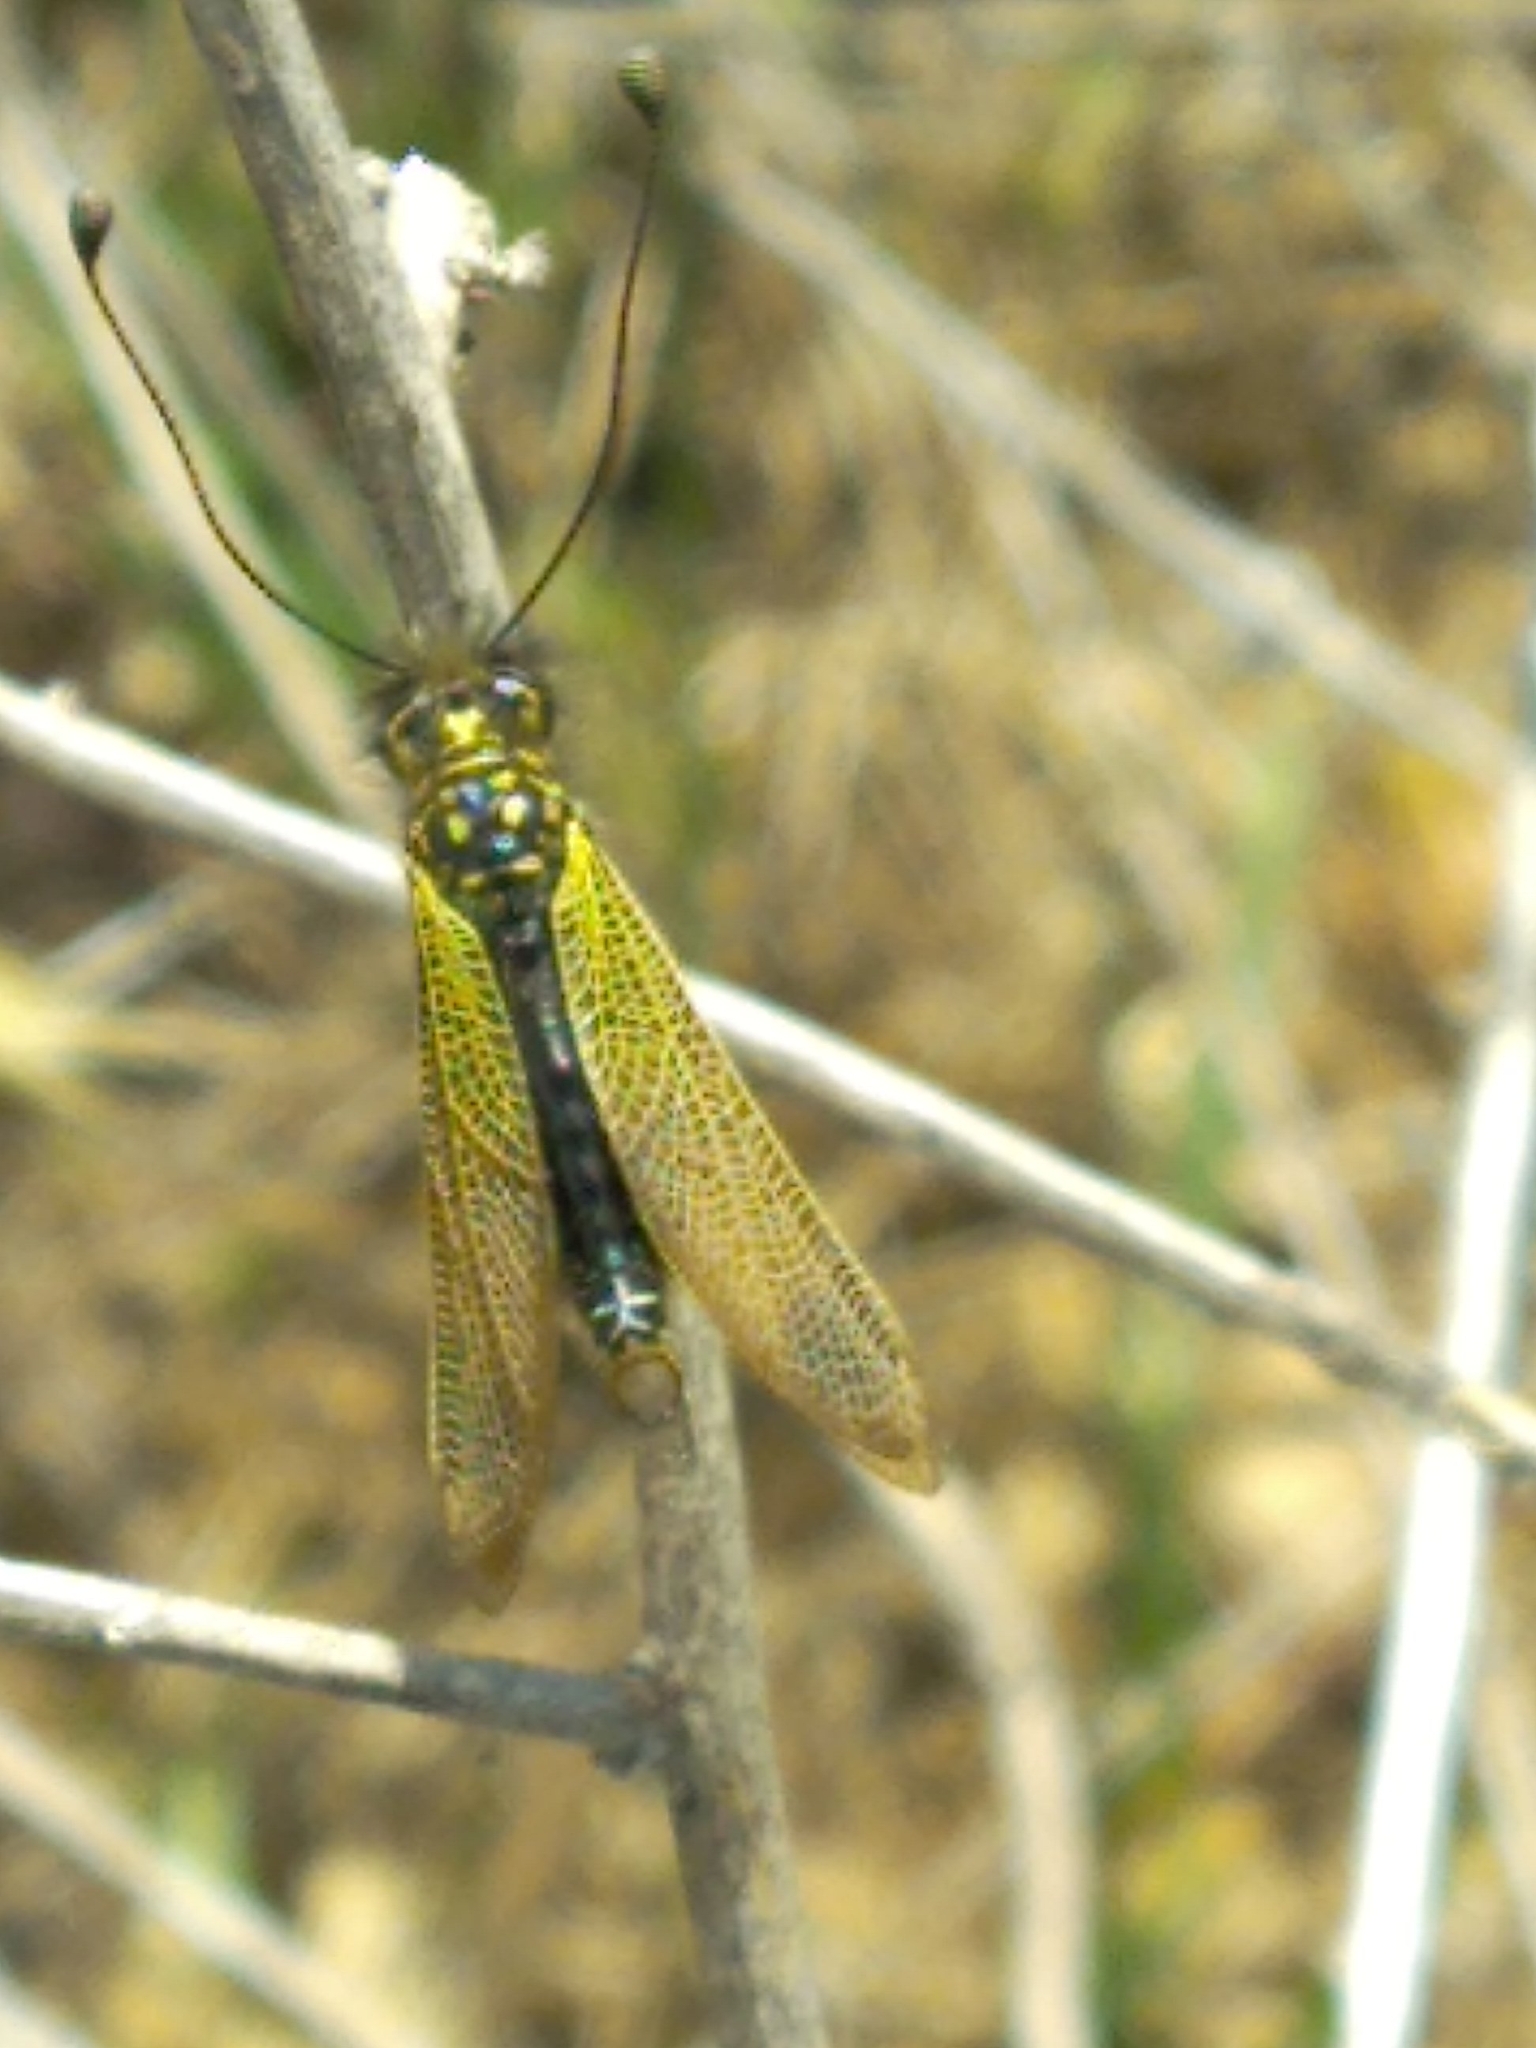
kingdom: Animalia
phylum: Arthropoda
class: Insecta
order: Neuroptera
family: Ascalaphidae
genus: Libelloides
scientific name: Libelloides ictericus
